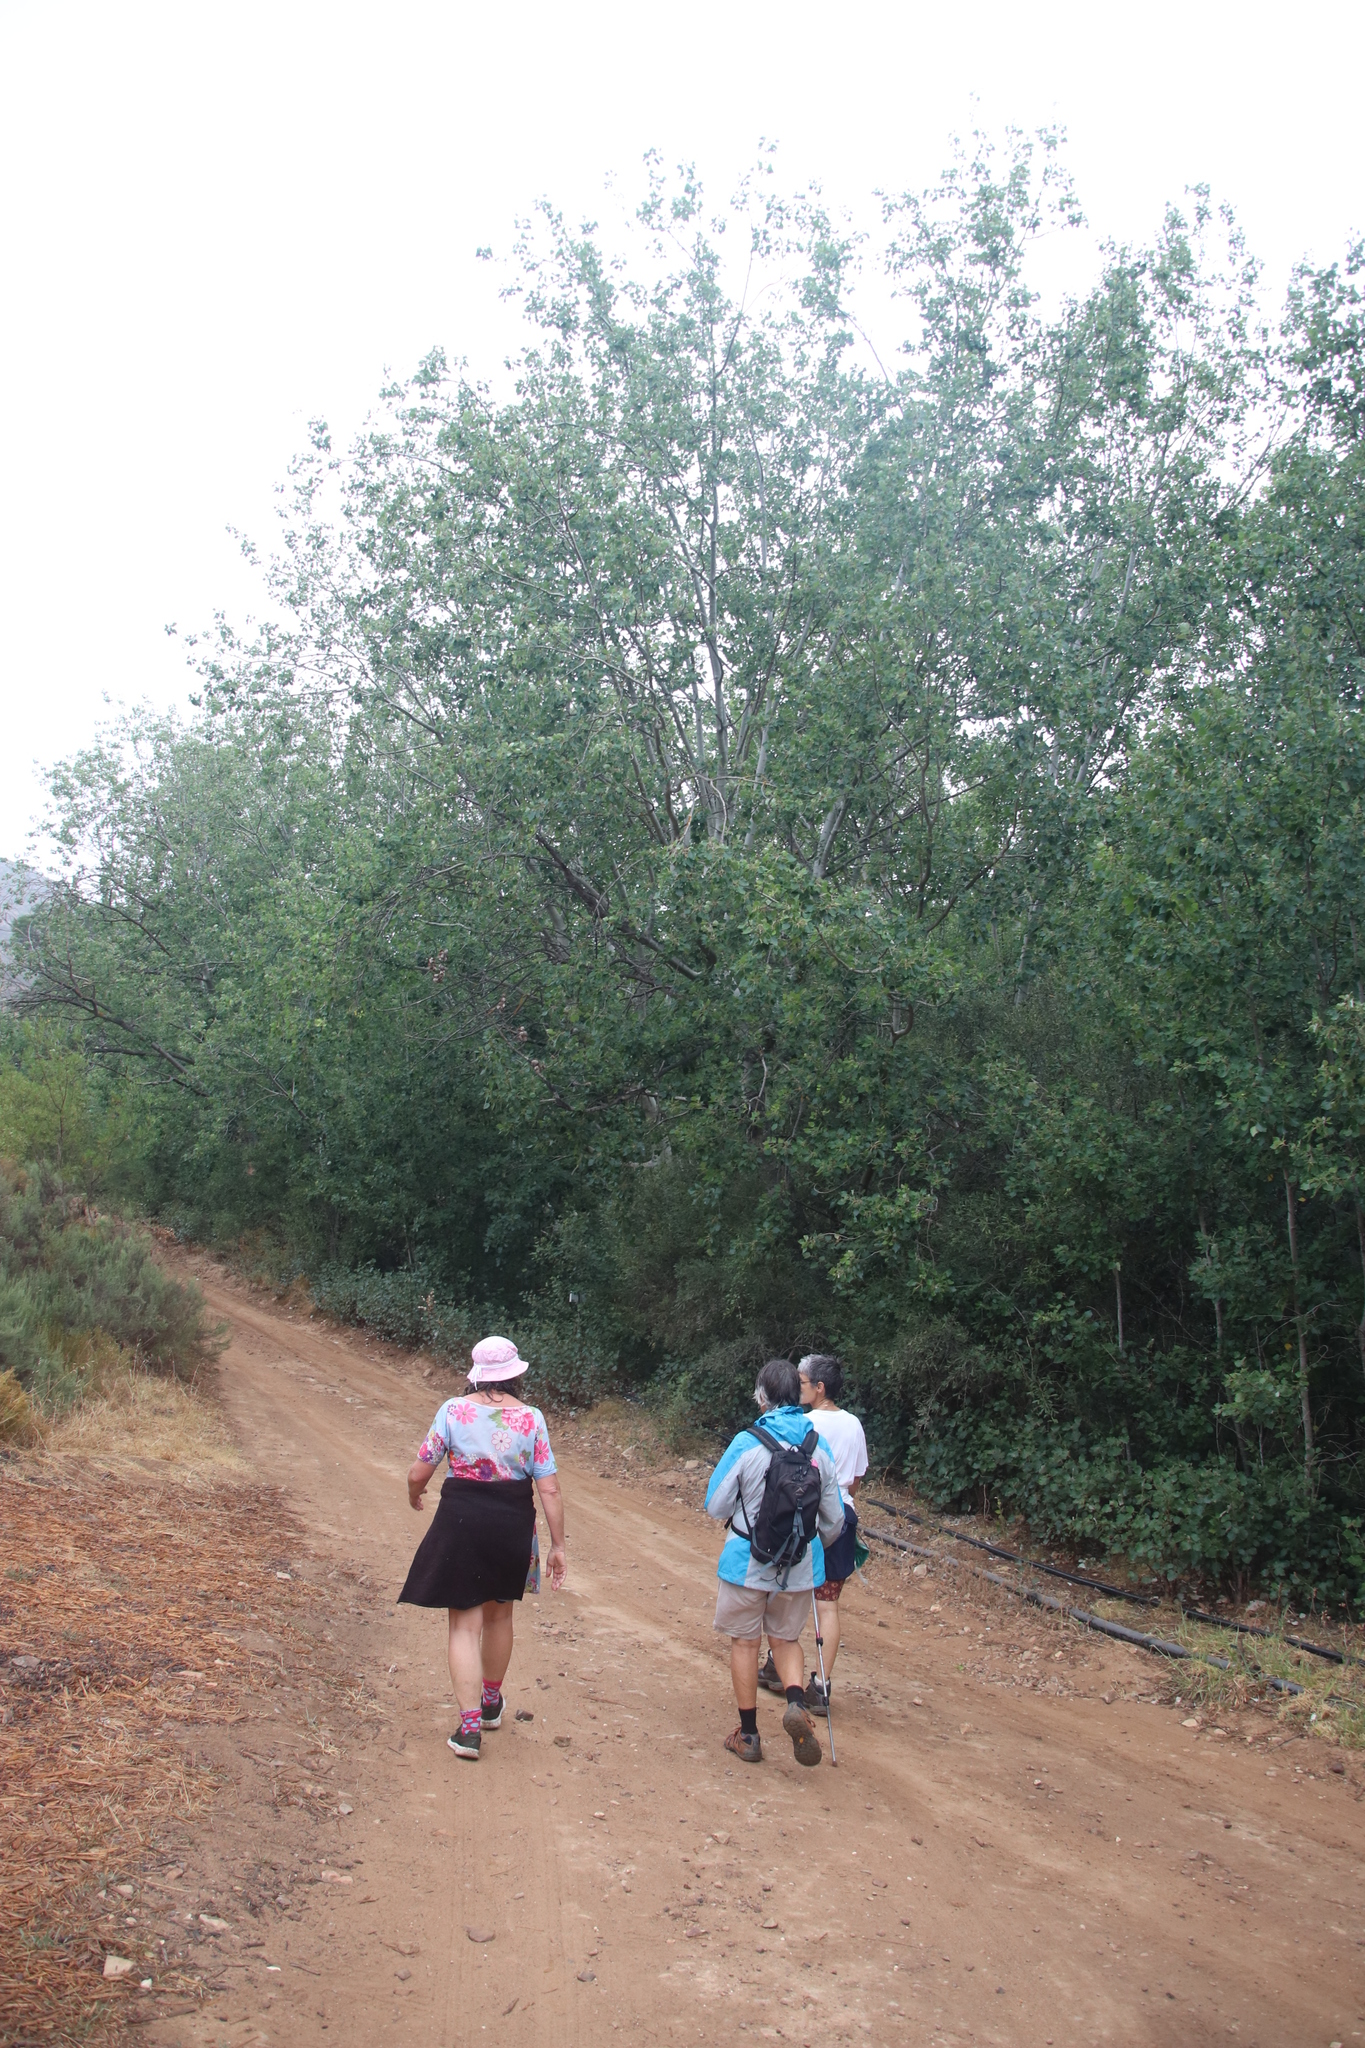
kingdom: Plantae
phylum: Tracheophyta
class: Magnoliopsida
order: Malpighiales
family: Salicaceae
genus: Populus
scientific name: Populus canescens
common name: Gray poplar
